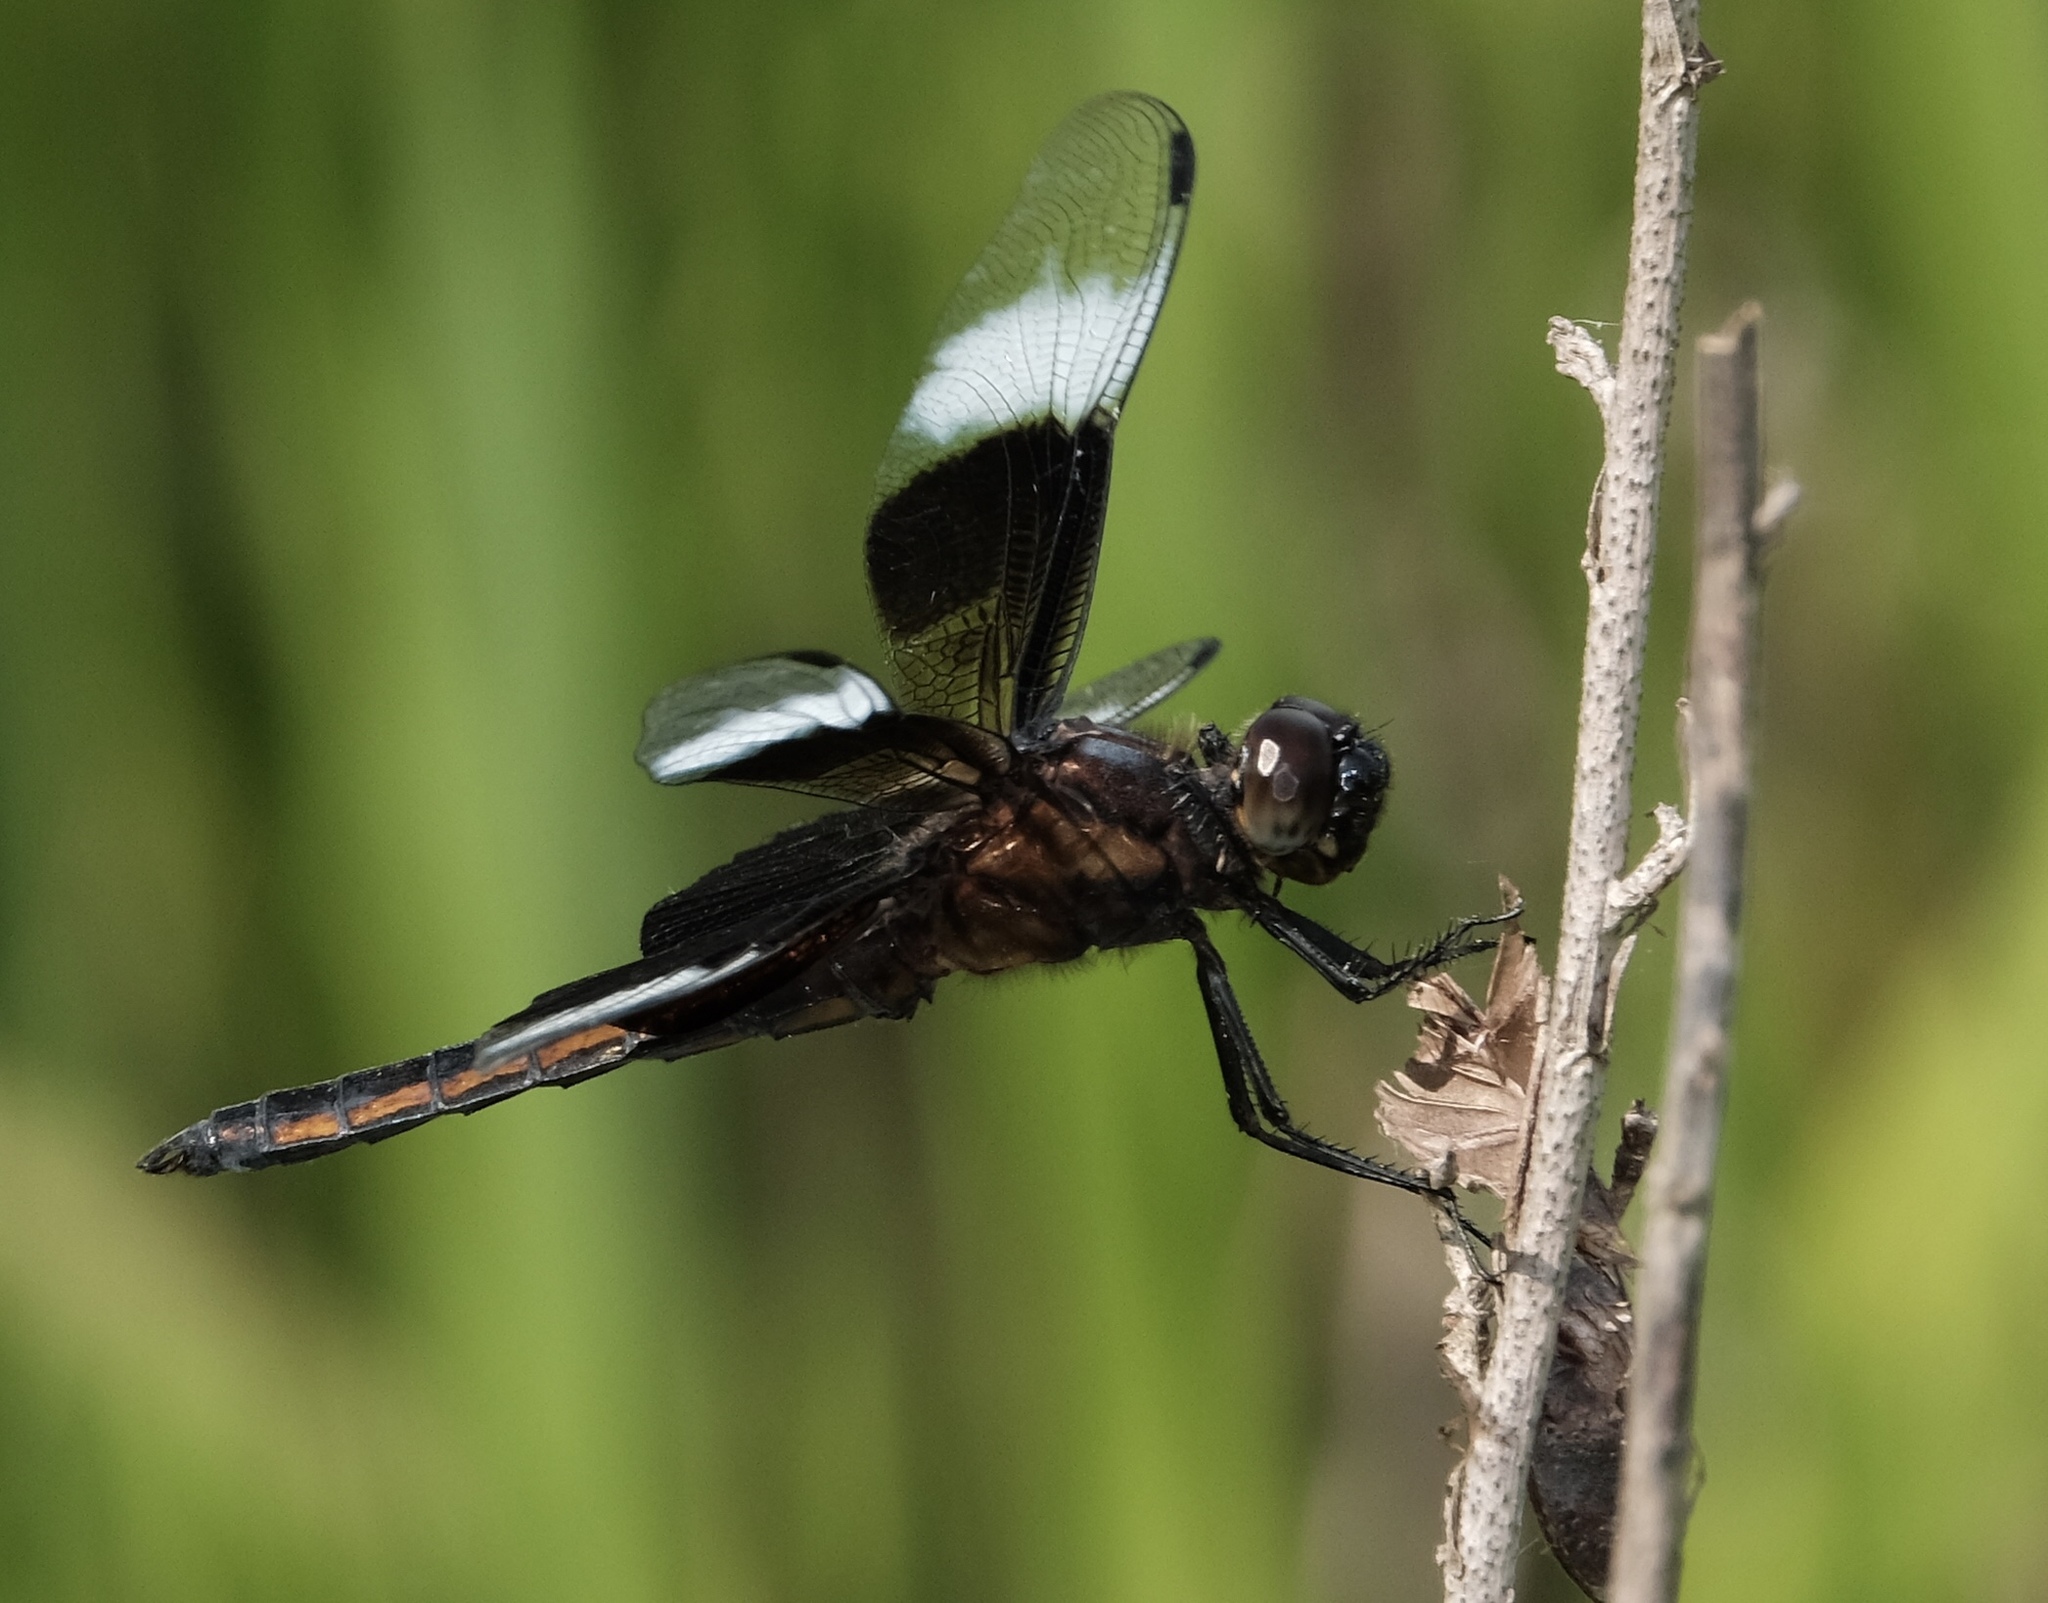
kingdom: Animalia
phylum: Arthropoda
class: Insecta
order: Odonata
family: Libellulidae
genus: Libellula
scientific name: Libellula luctuosa
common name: Widow skimmer
